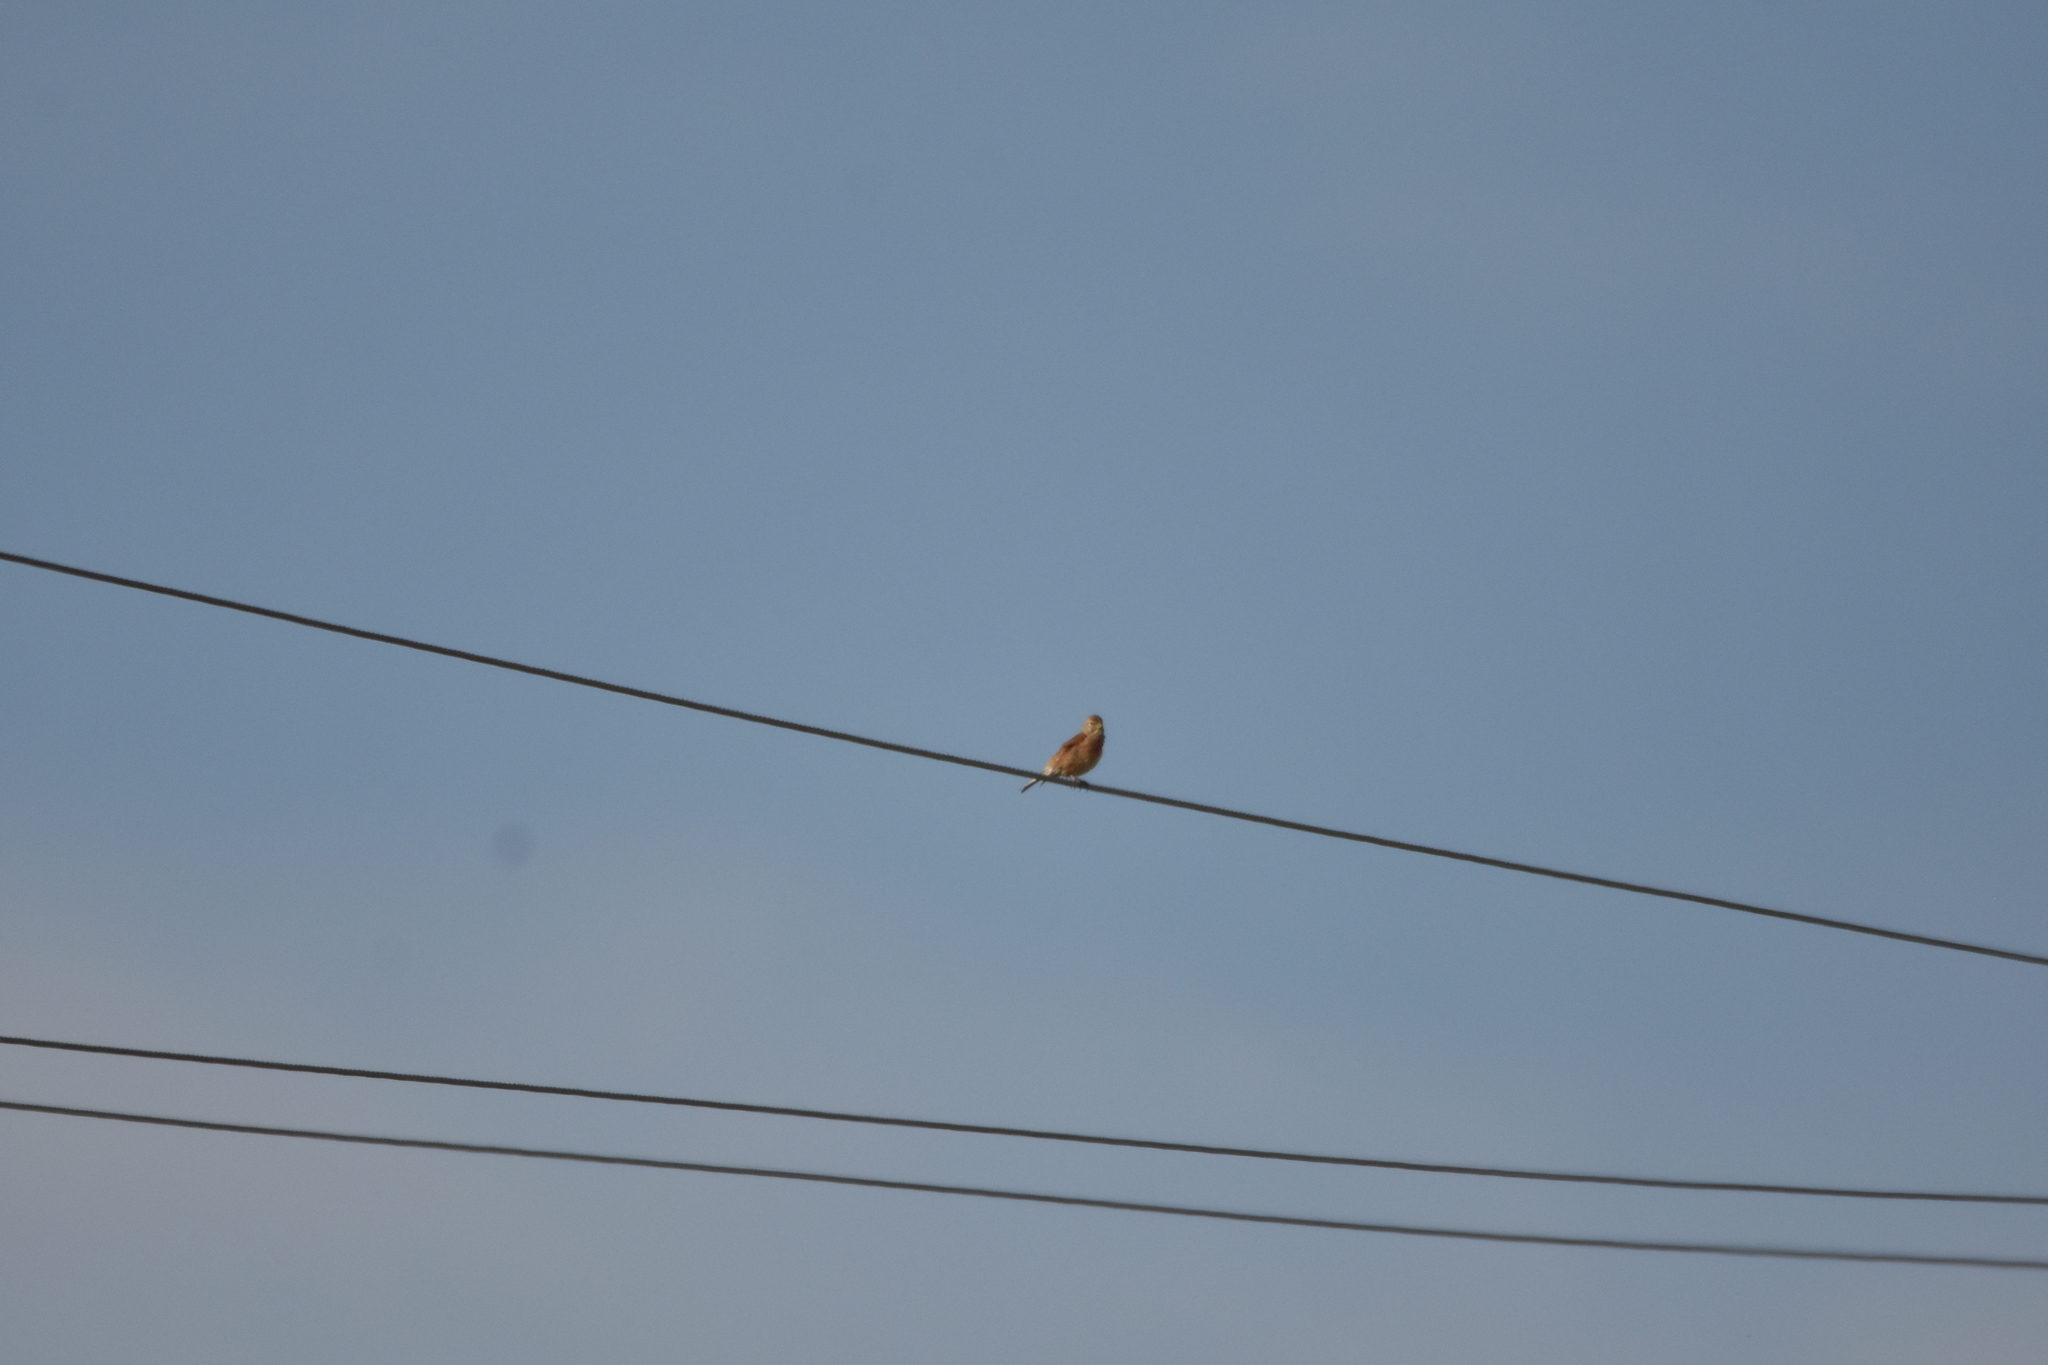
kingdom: Animalia
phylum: Chordata
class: Aves
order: Passeriformes
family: Fringillidae
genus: Linaria
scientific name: Linaria cannabina
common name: Common linnet
